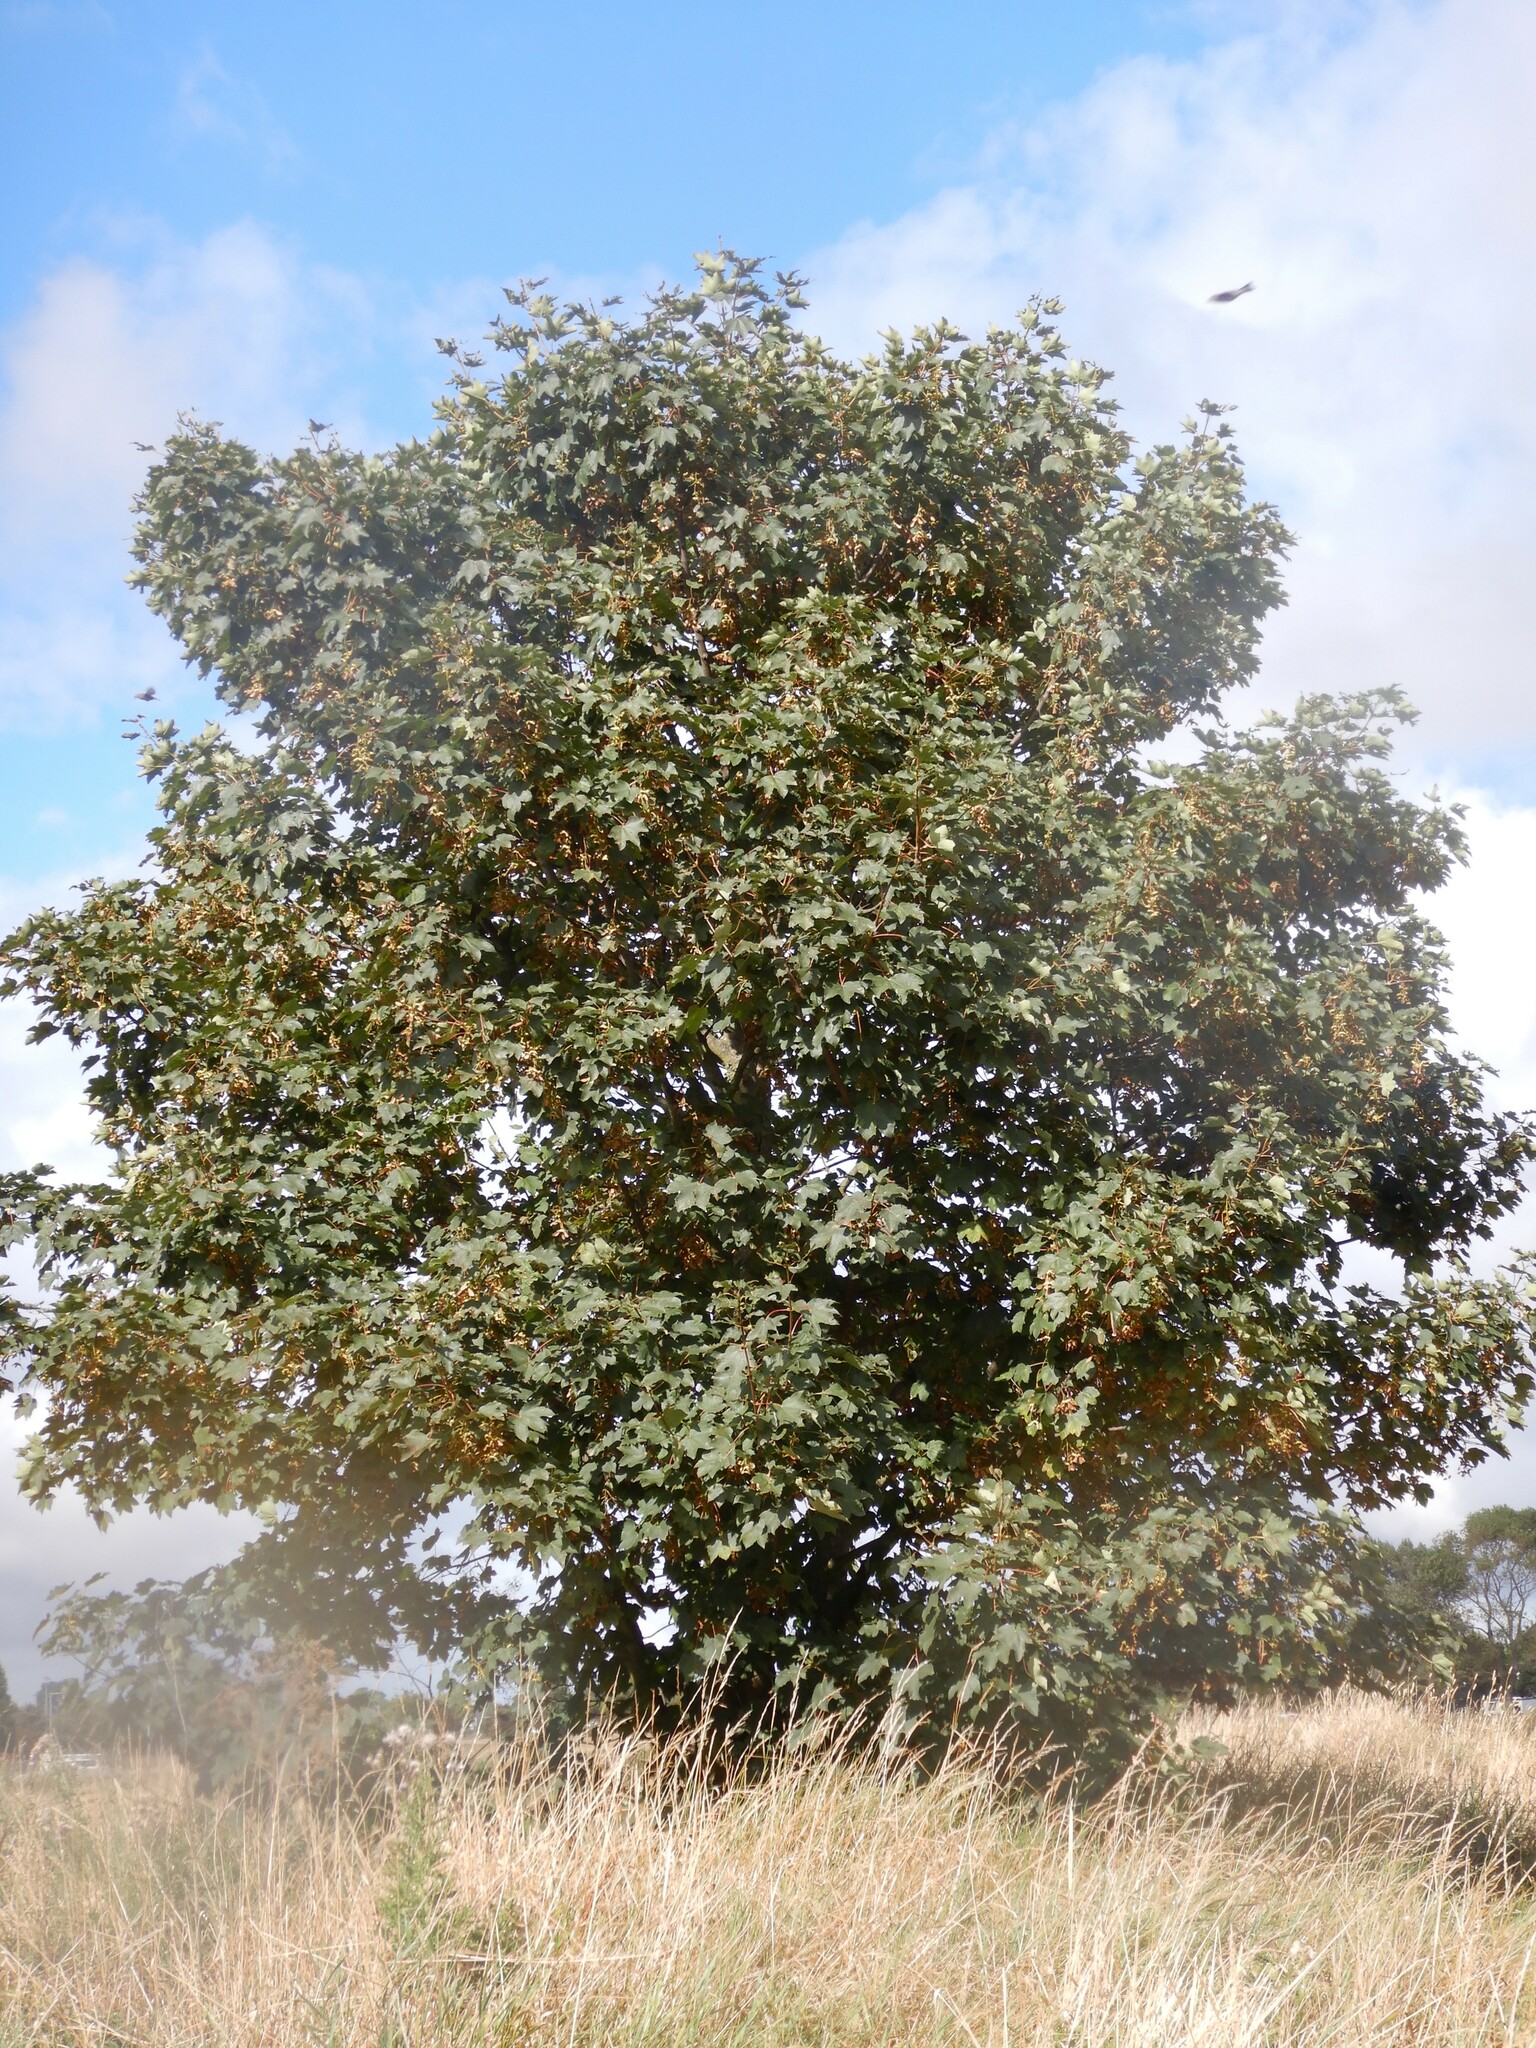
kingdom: Plantae
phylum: Tracheophyta
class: Magnoliopsida
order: Sapindales
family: Sapindaceae
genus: Acer
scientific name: Acer pseudoplatanus
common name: Sycamore
